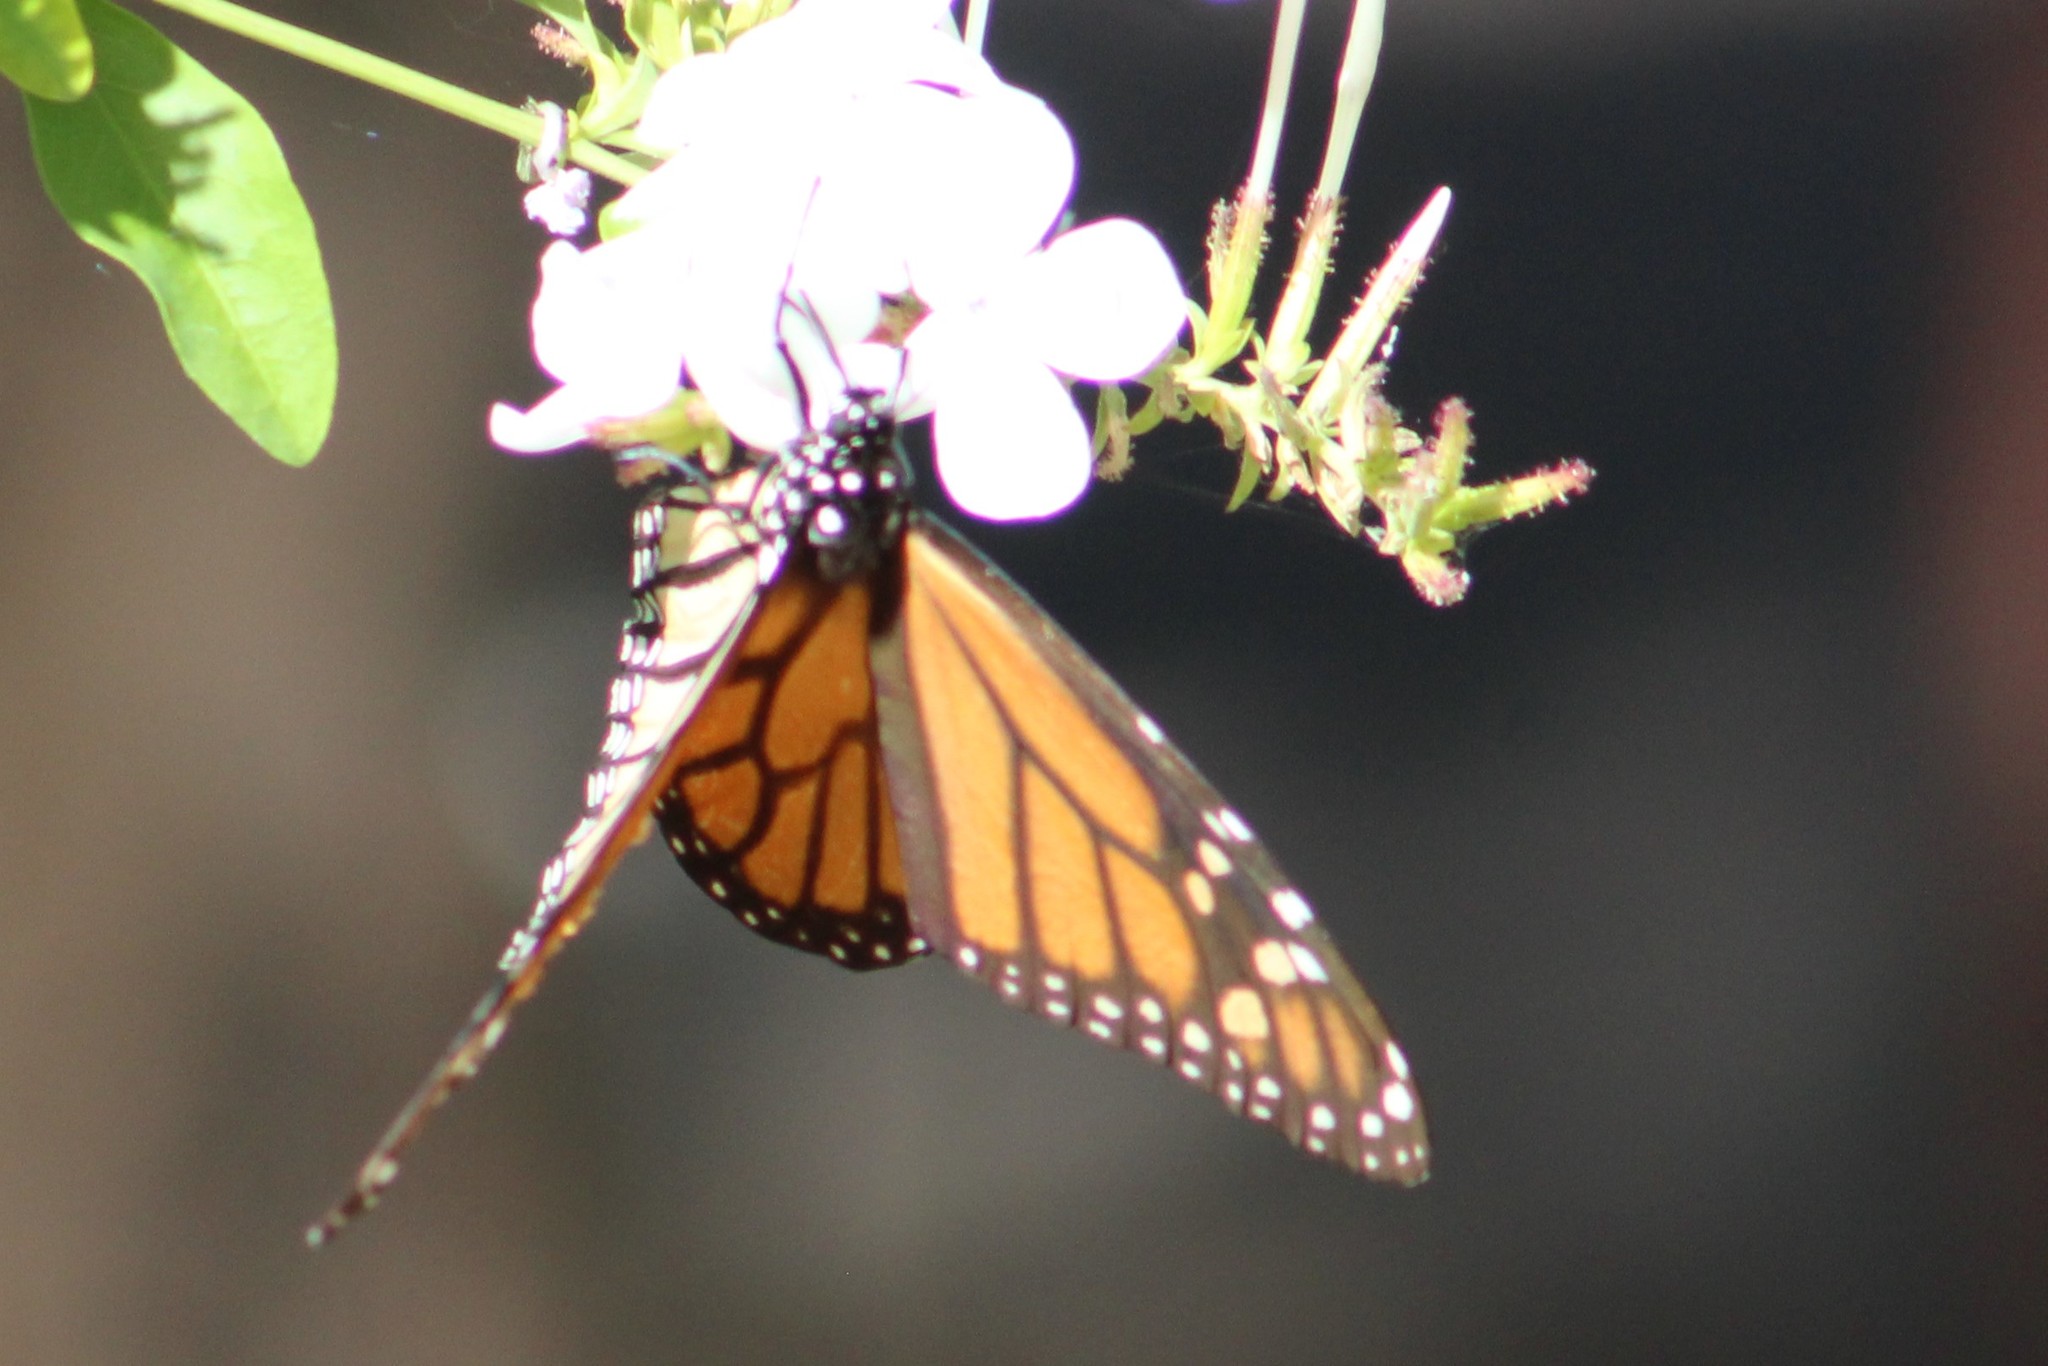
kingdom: Animalia
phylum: Arthropoda
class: Insecta
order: Lepidoptera
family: Nymphalidae
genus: Danaus
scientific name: Danaus plexippus
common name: Monarch
